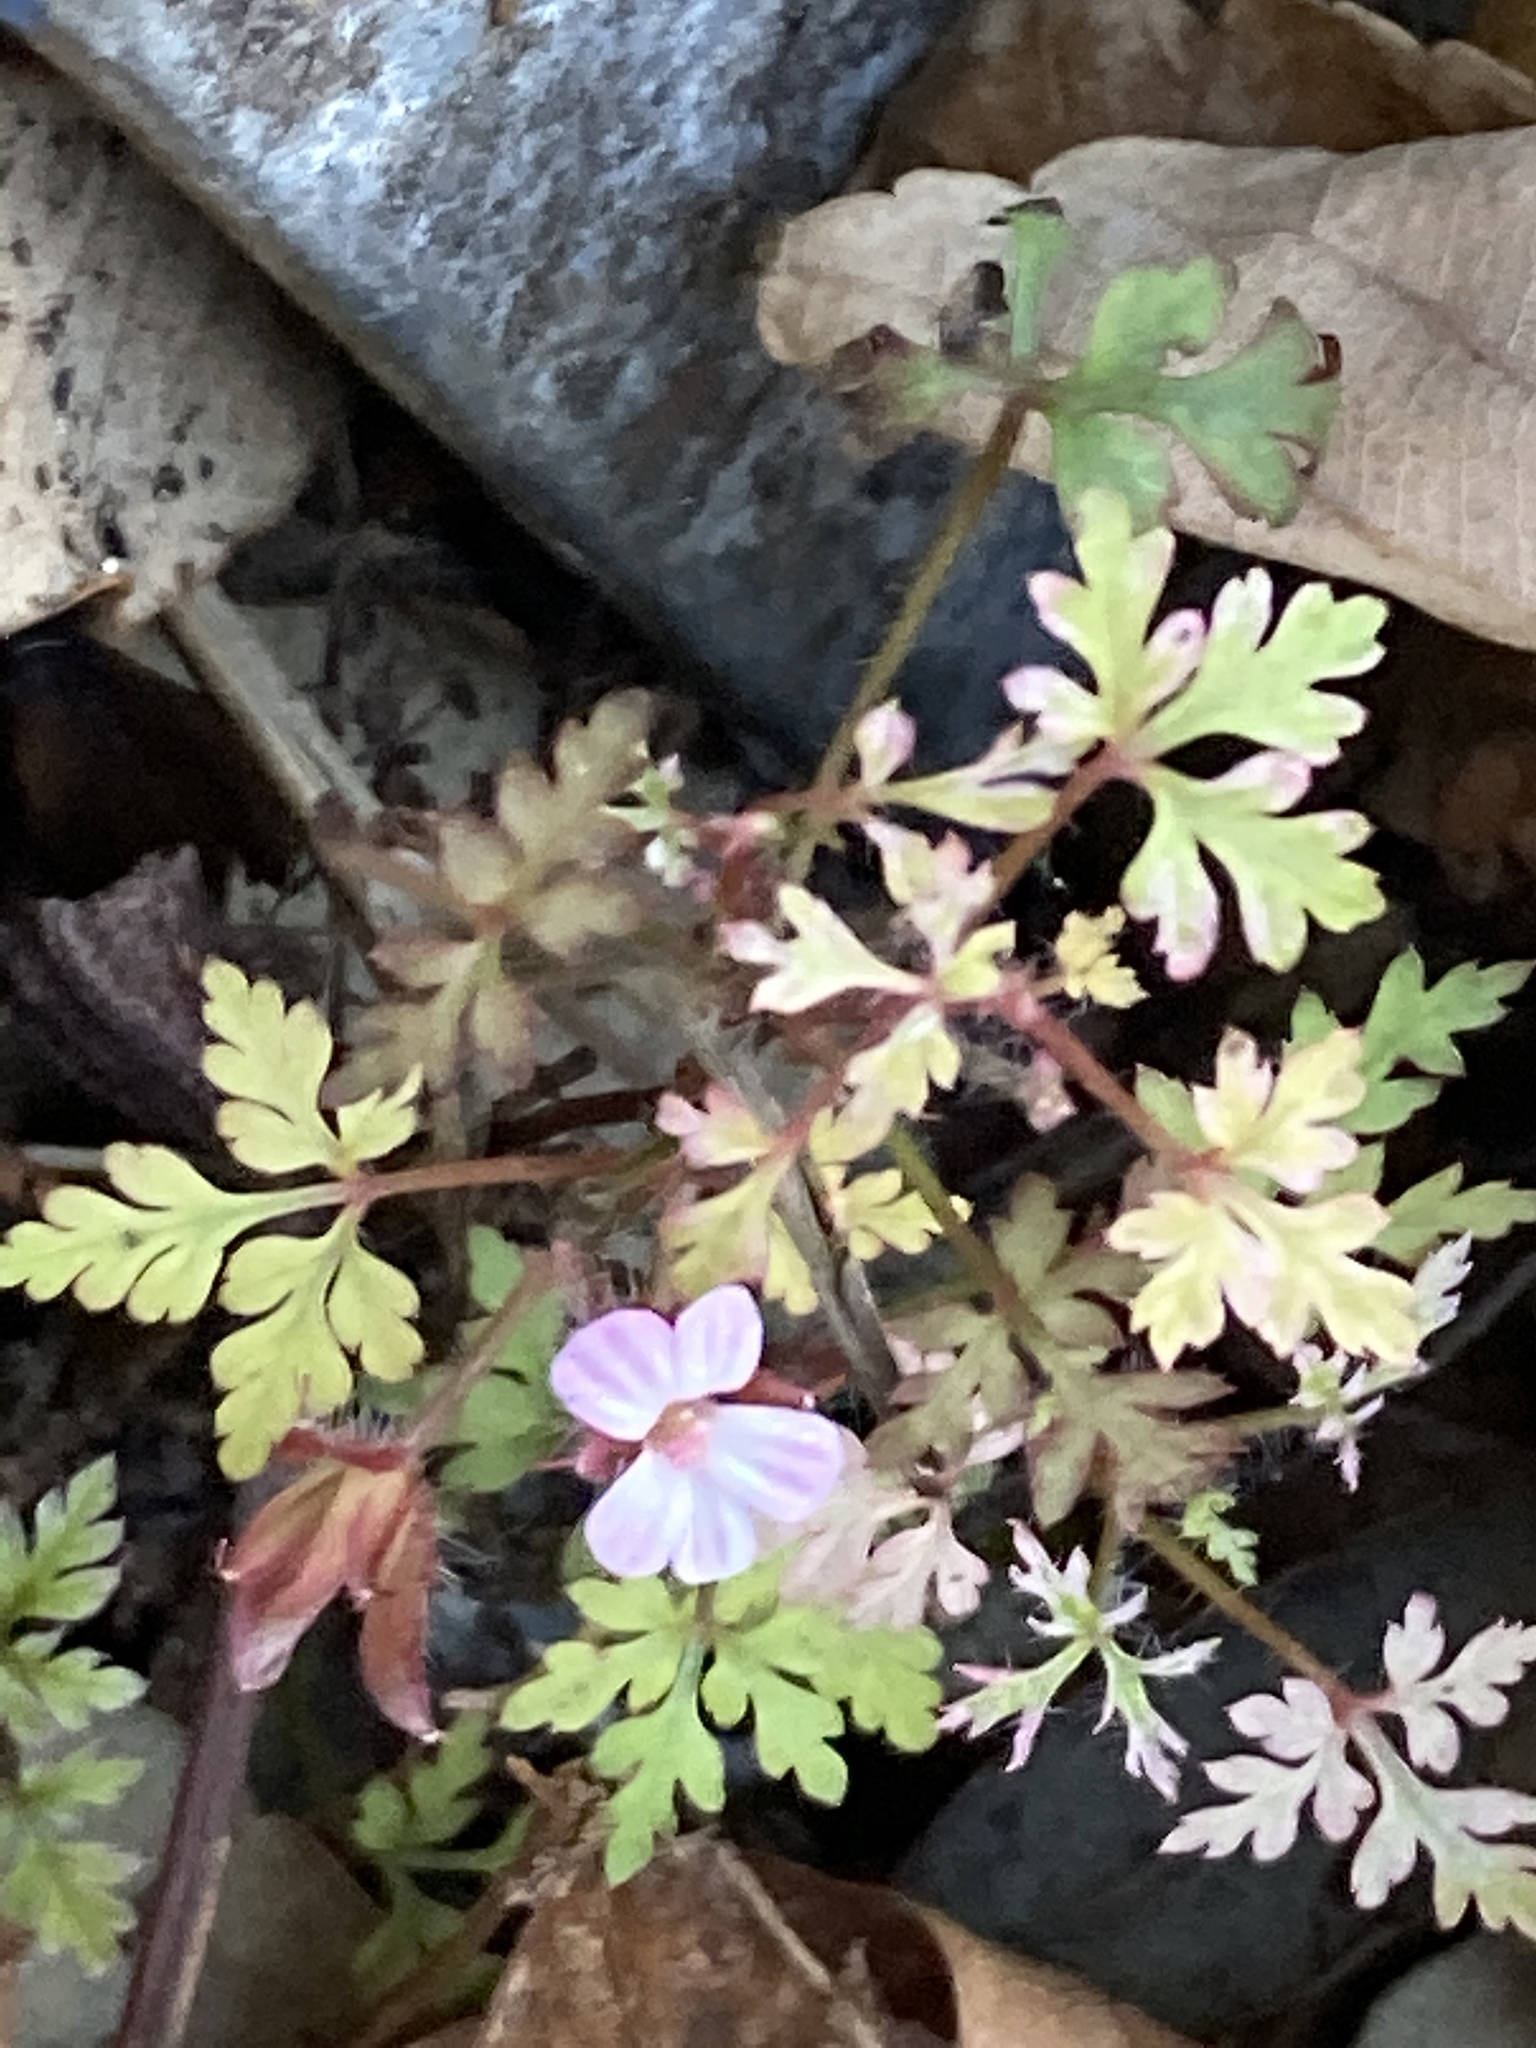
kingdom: Plantae
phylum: Tracheophyta
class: Magnoliopsida
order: Geraniales
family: Geraniaceae
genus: Geranium
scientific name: Geranium robertianum
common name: Herb-robert
